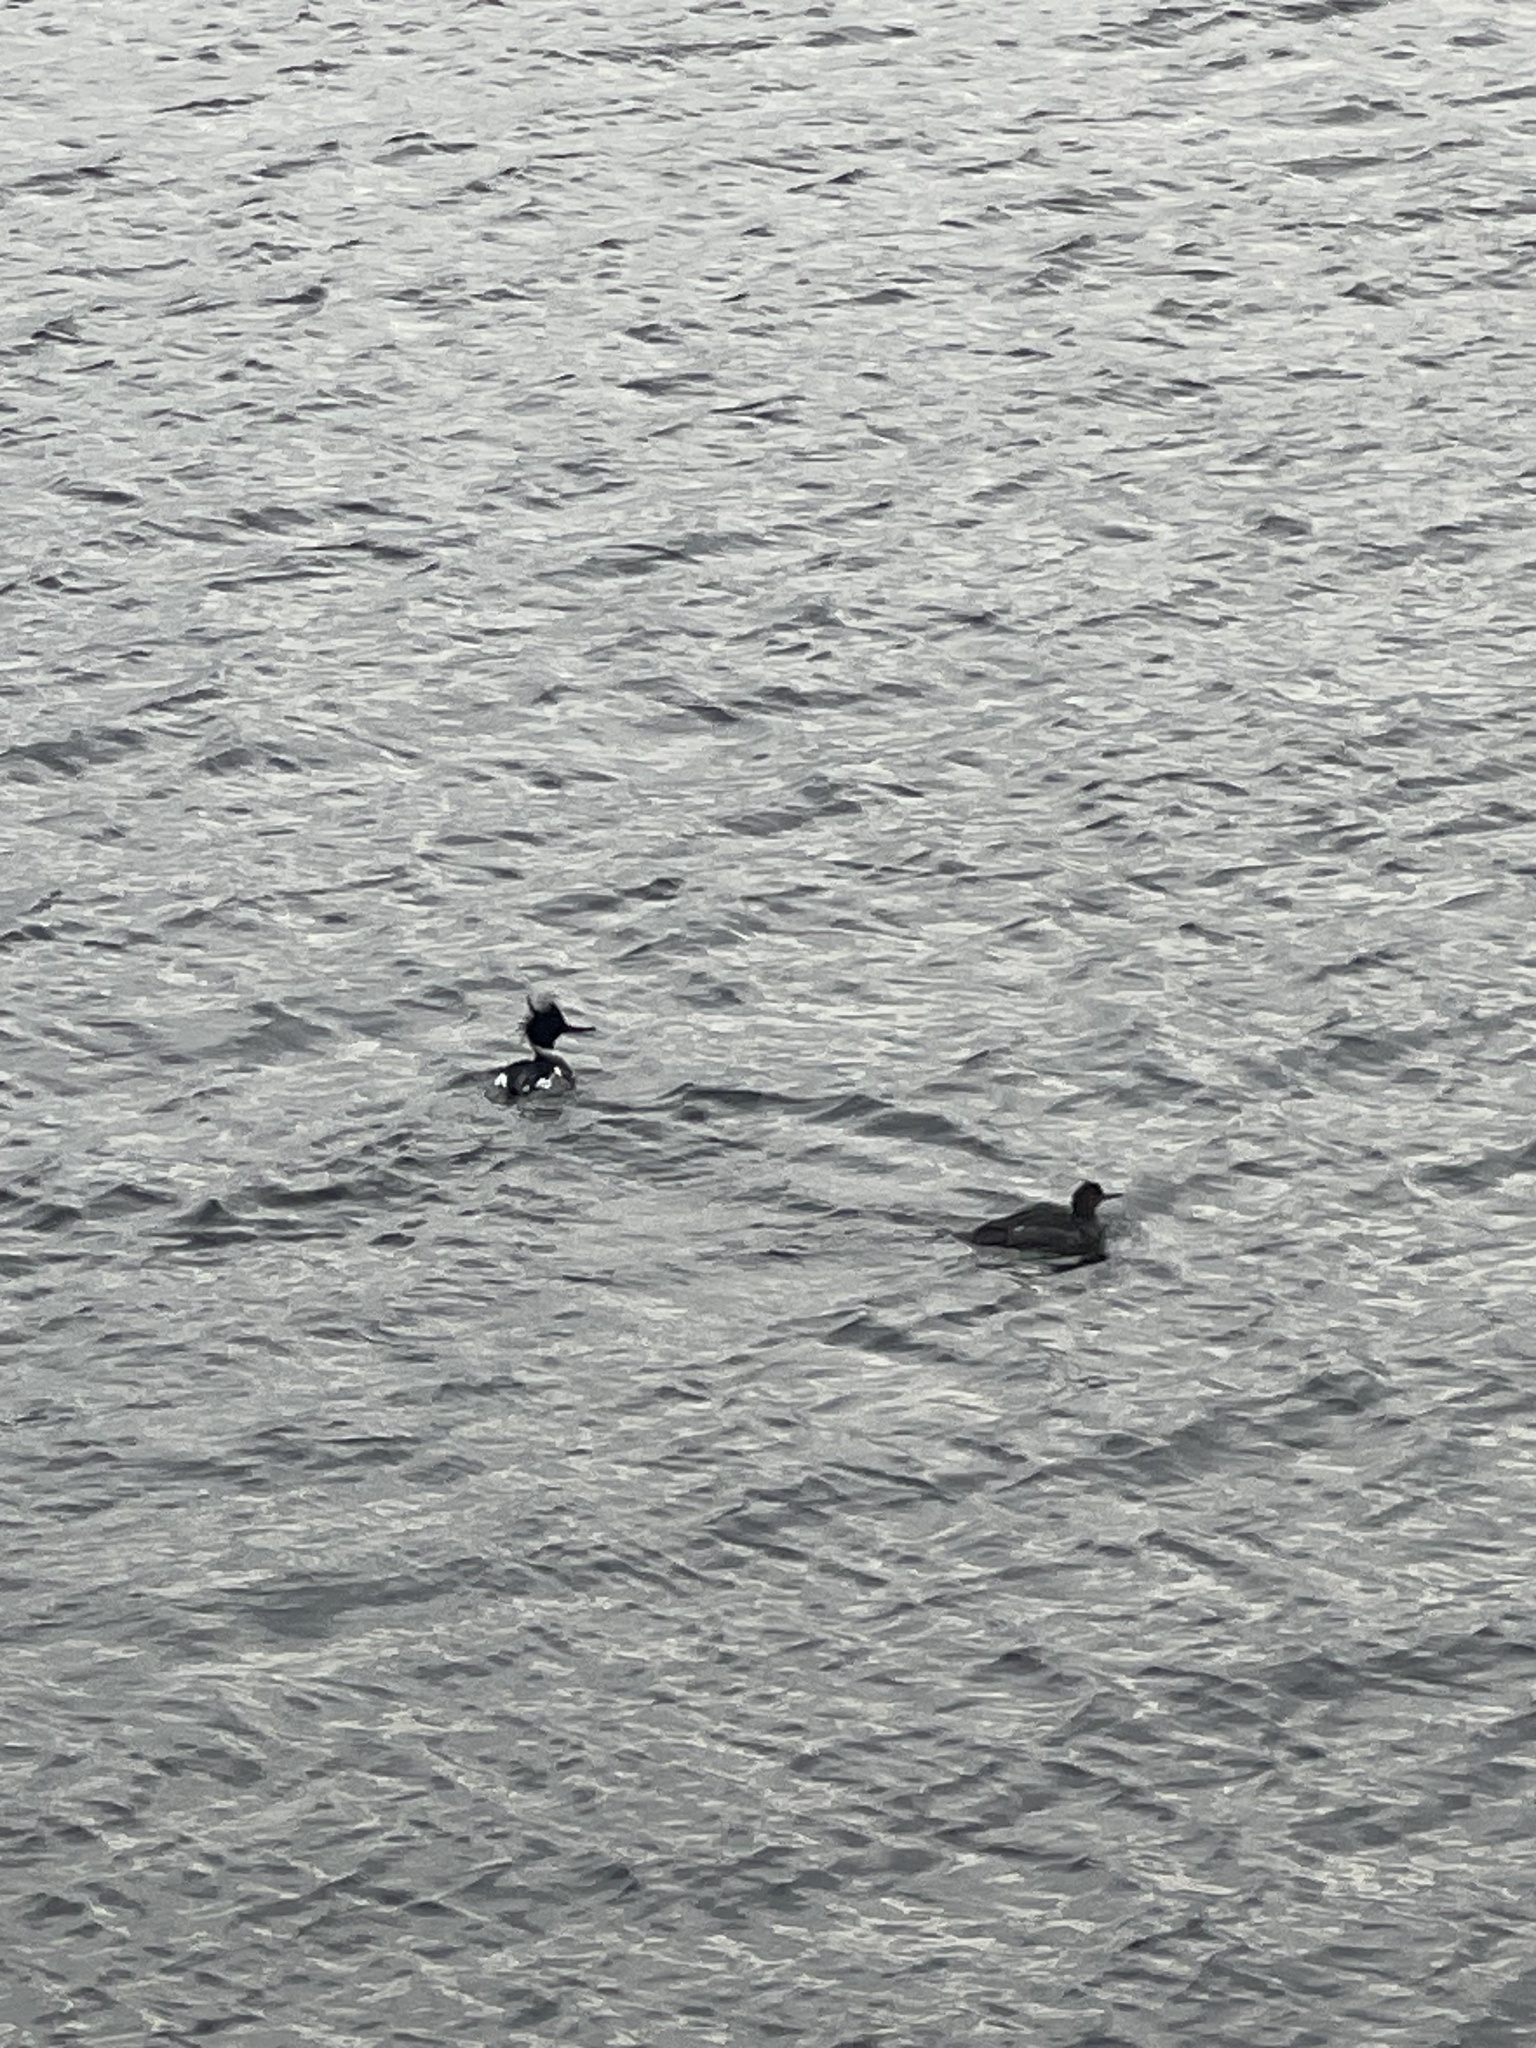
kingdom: Animalia
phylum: Chordata
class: Aves
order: Anseriformes
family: Anatidae
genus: Mergus
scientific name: Mergus serrator
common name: Red-breasted merganser
